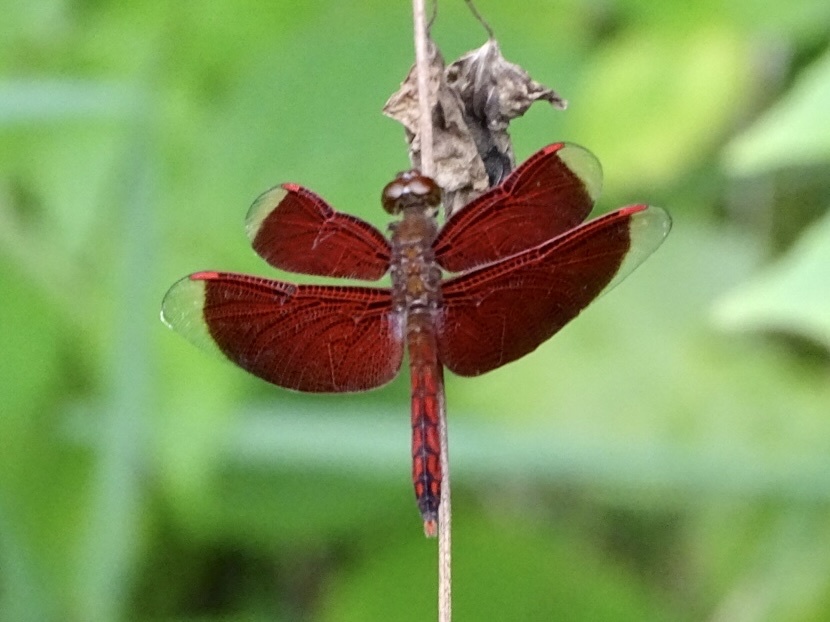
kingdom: Animalia
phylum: Arthropoda
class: Insecta
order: Odonata
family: Libellulidae
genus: Neurothemis
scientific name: Neurothemis ramburii
